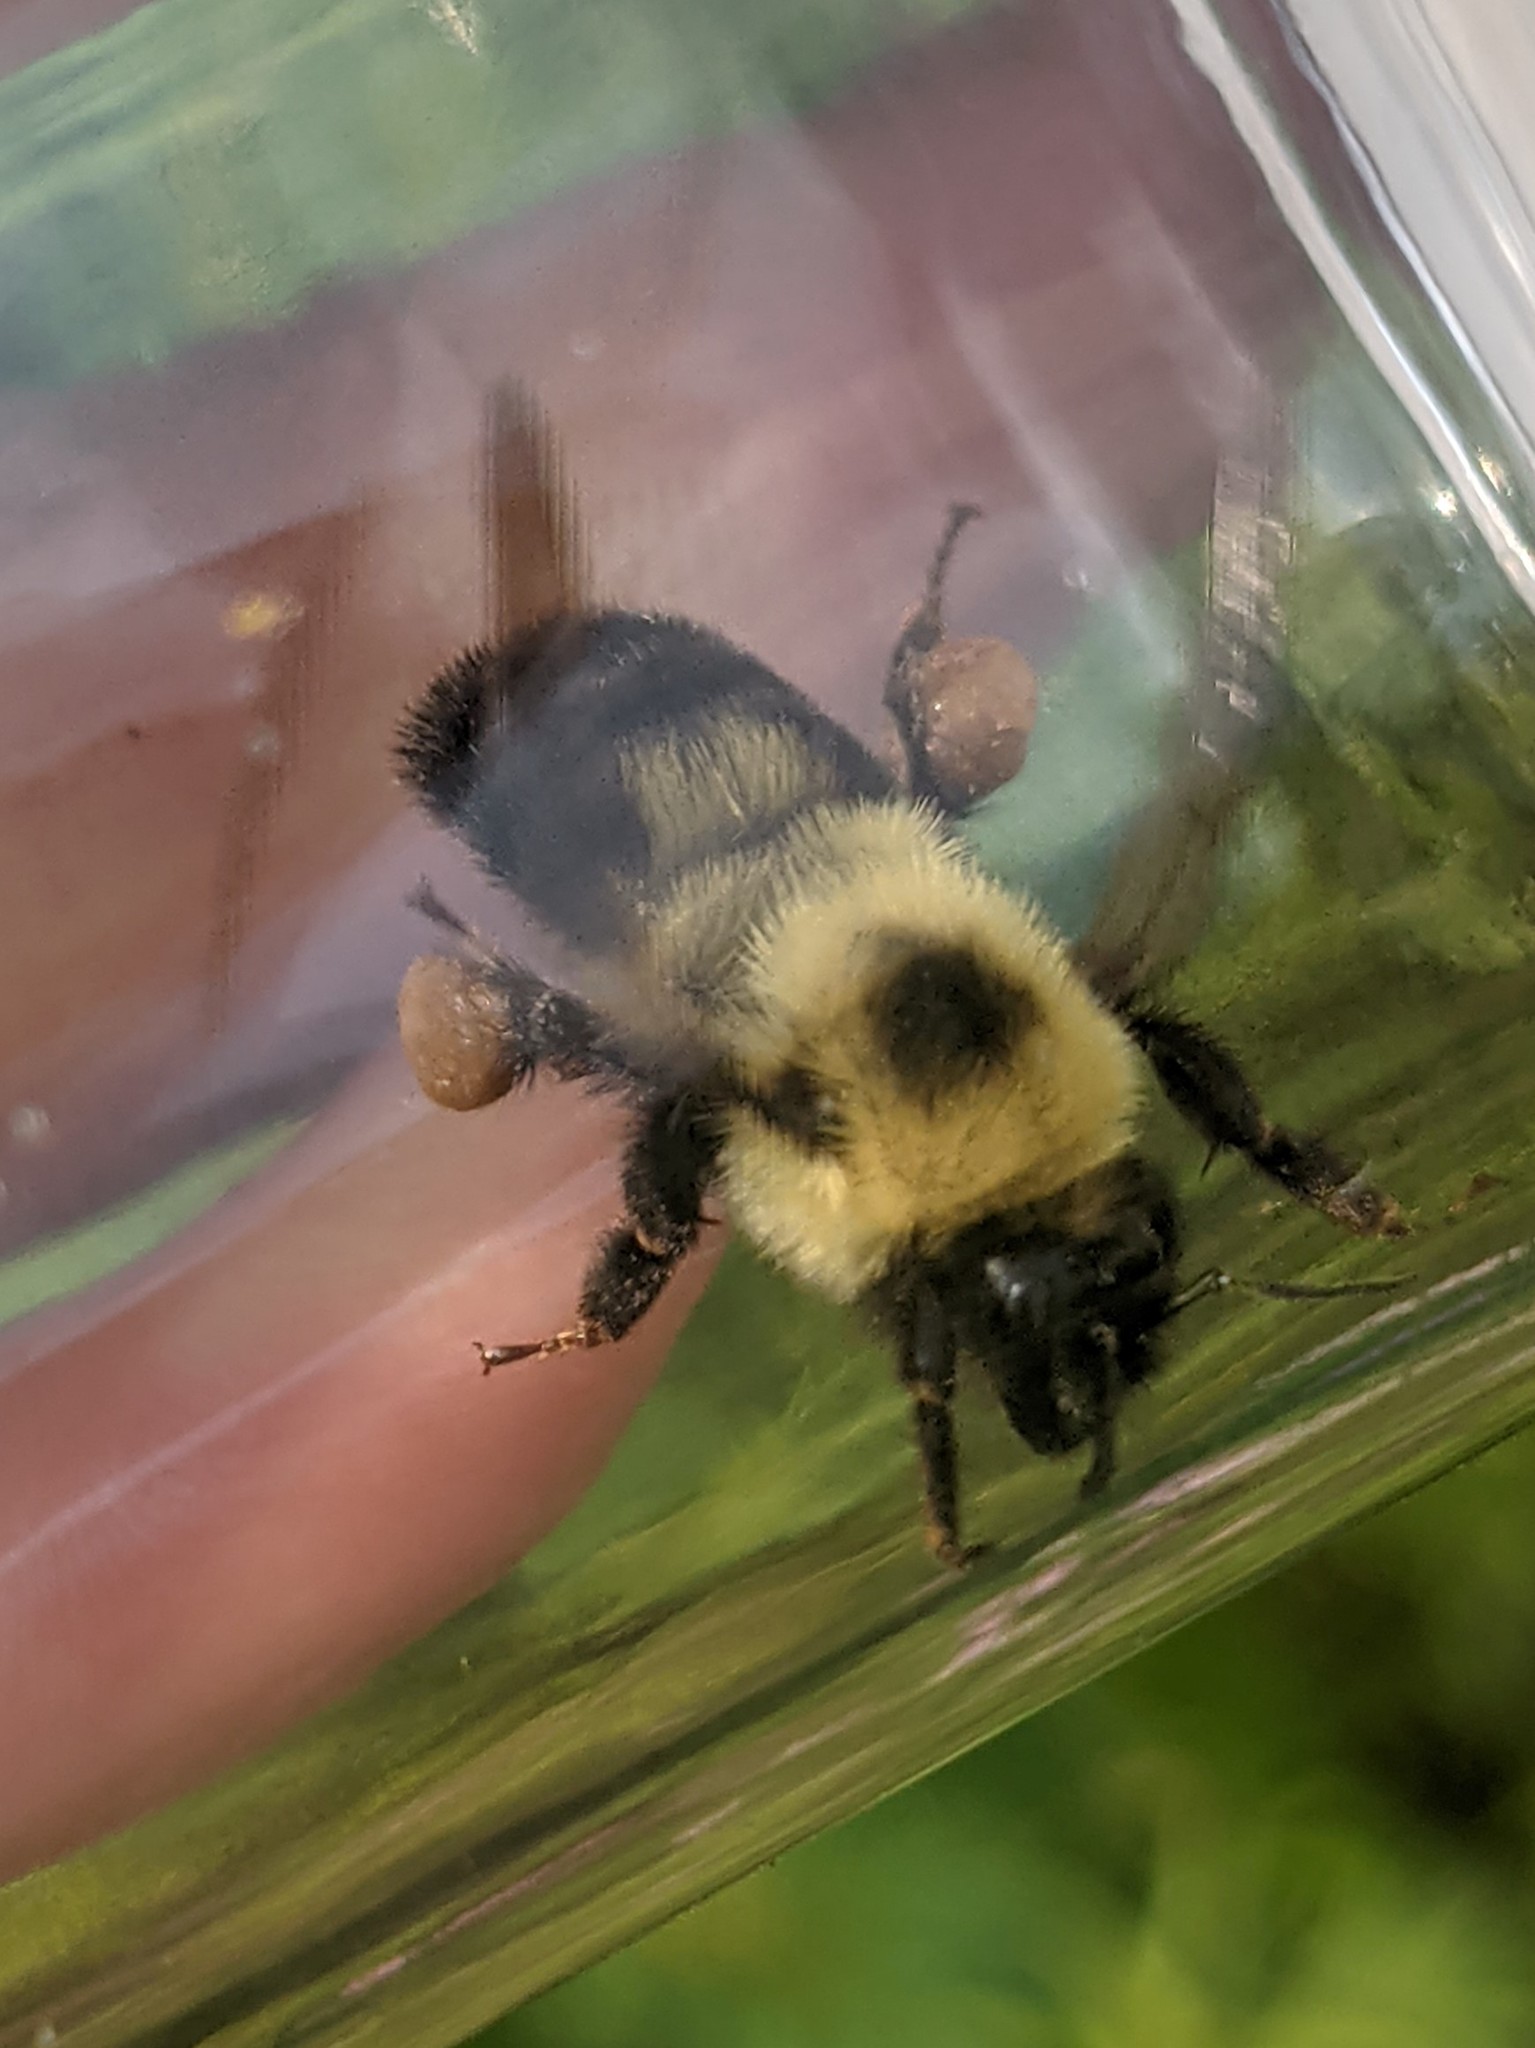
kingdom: Animalia
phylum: Arthropoda
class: Insecta
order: Hymenoptera
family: Apidae
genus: Bombus
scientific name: Bombus bimaculatus
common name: Two-spotted bumble bee
